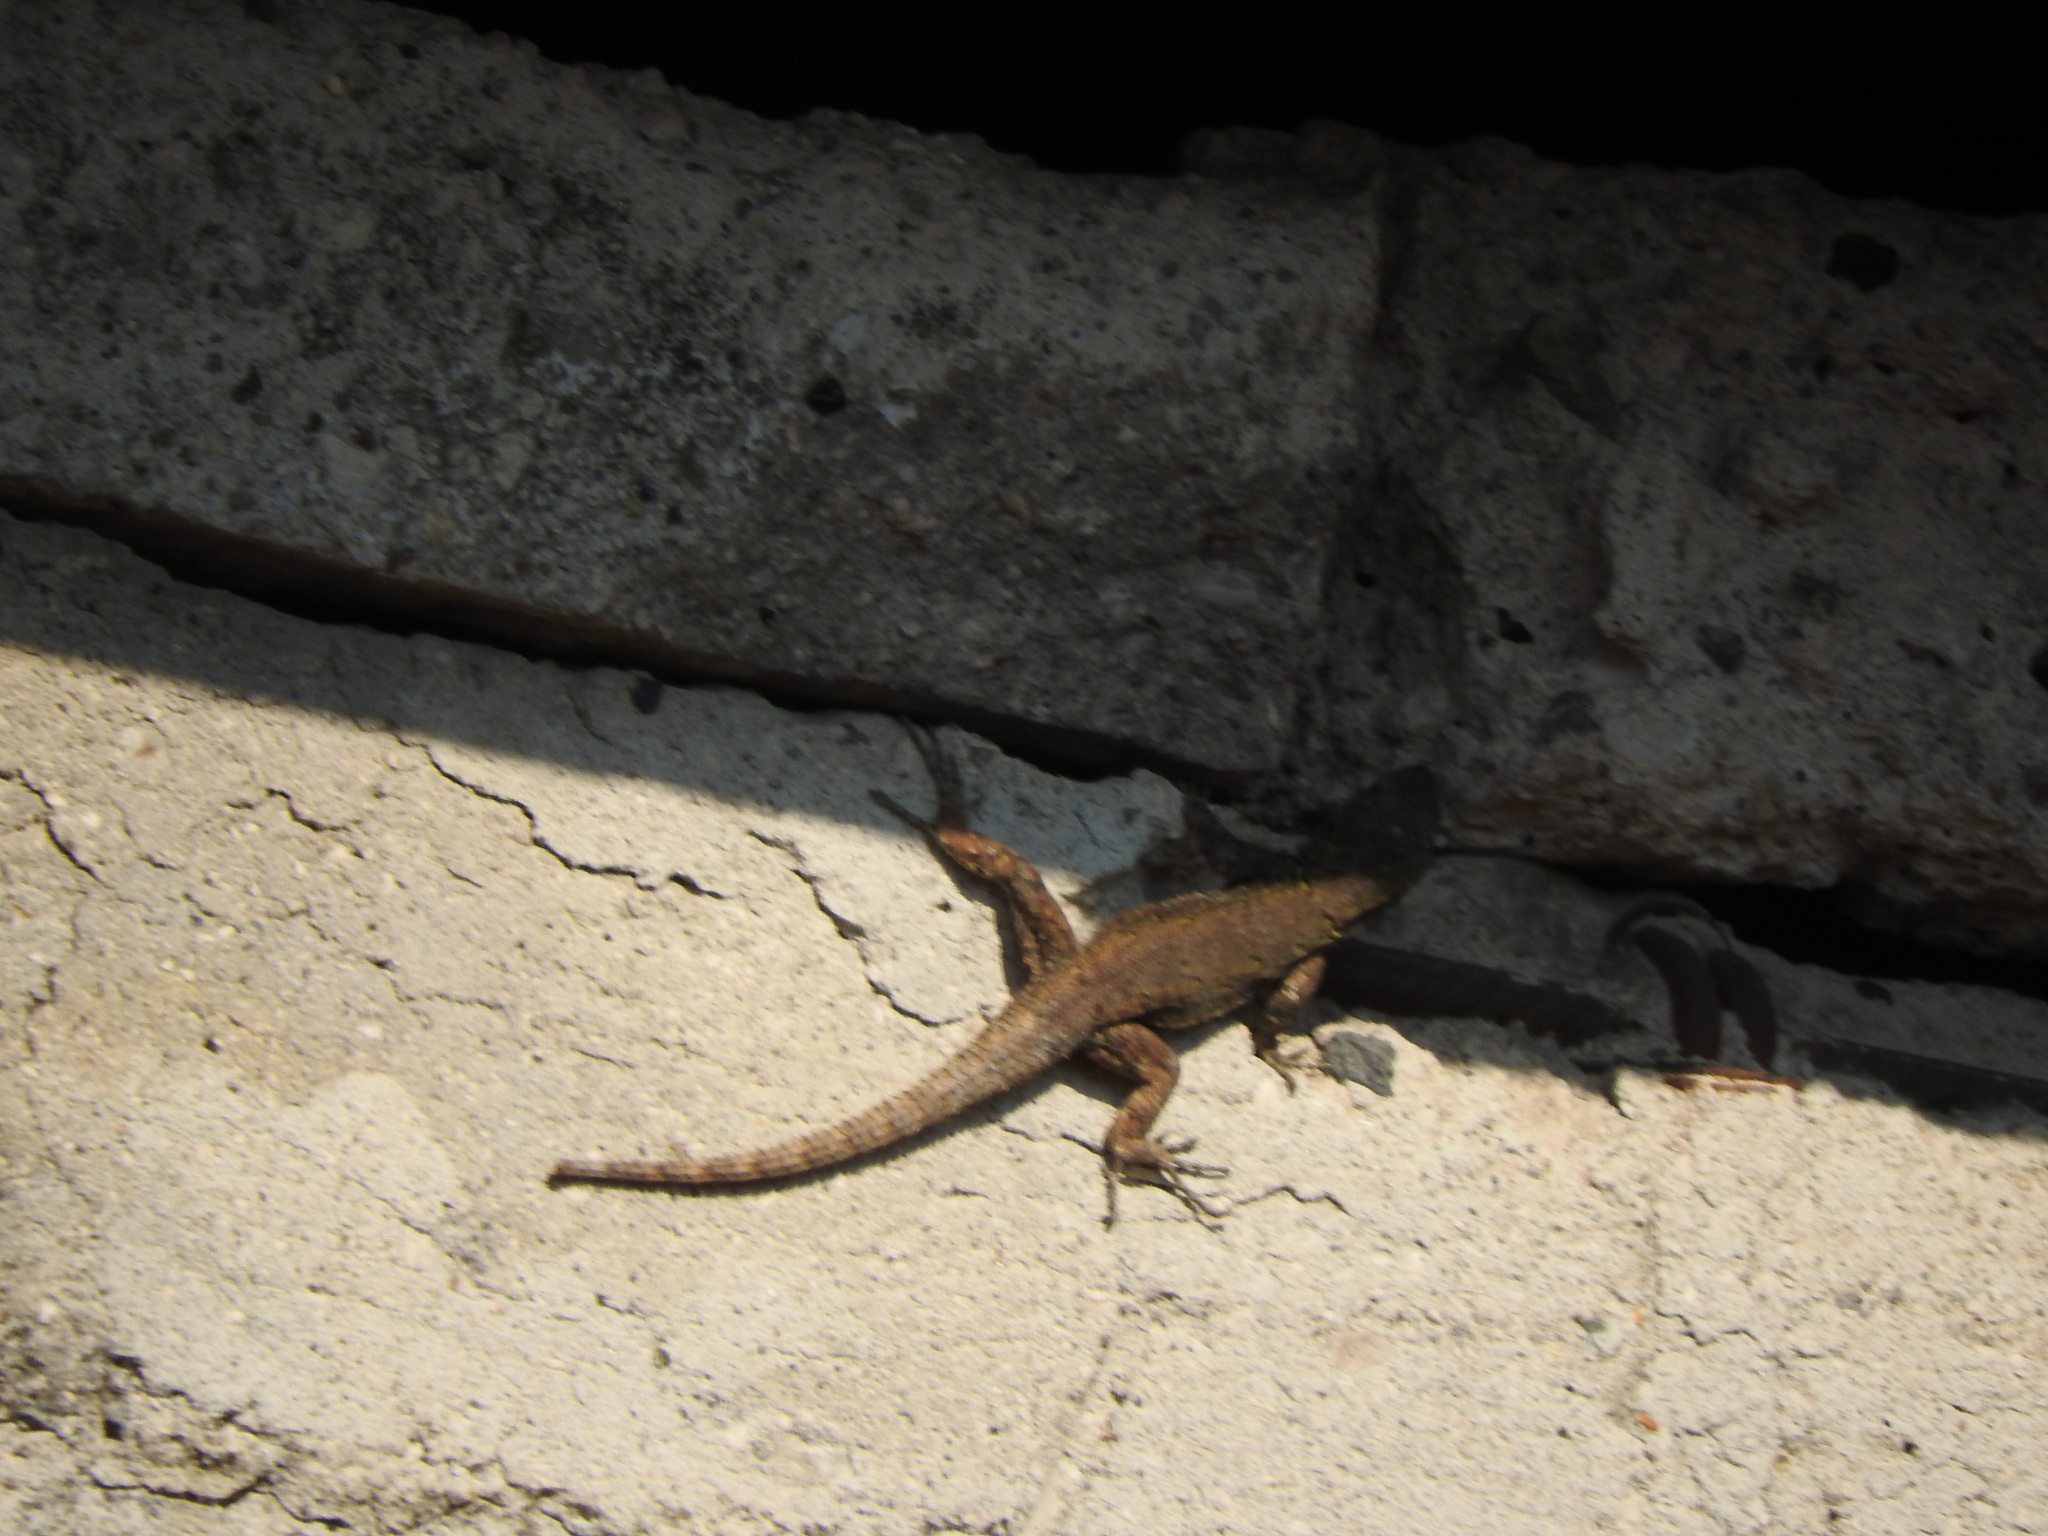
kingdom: Animalia
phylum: Chordata
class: Squamata
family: Phrynosomatidae
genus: Sceloporus
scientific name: Sceloporus grammicus
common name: Mesquite lizard
